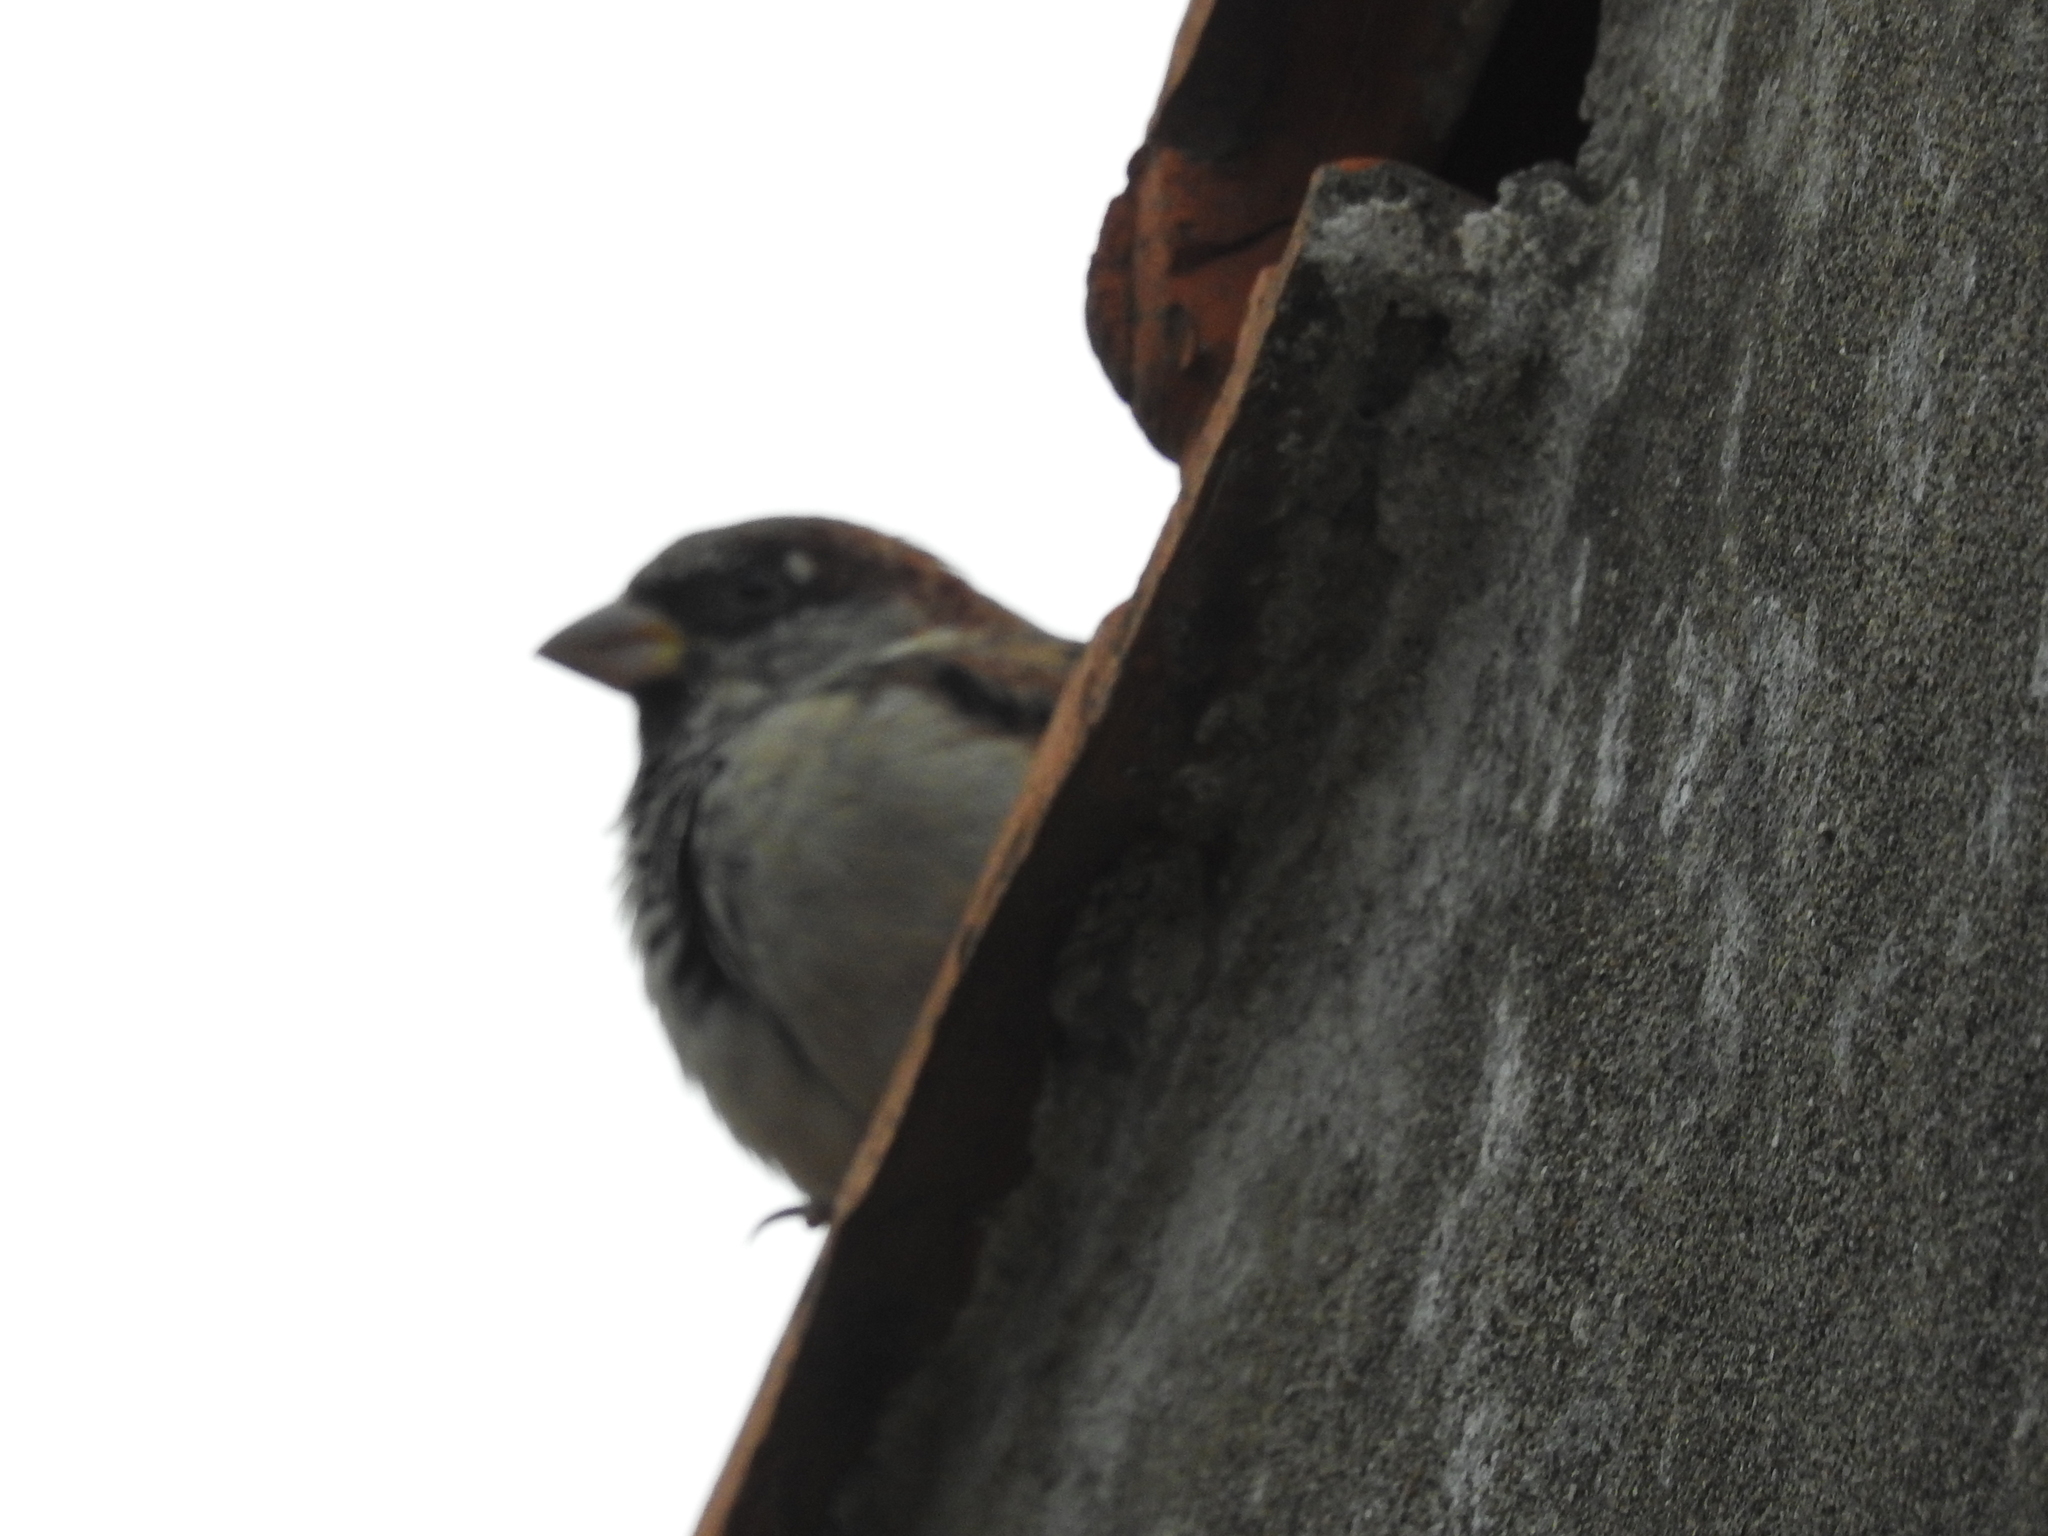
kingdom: Animalia
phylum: Chordata
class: Aves
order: Passeriformes
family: Passeridae
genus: Passer
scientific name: Passer domesticus
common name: House sparrow
